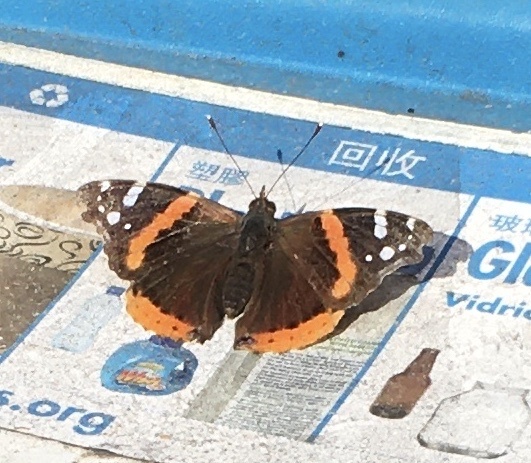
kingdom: Animalia
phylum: Arthropoda
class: Insecta
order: Lepidoptera
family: Nymphalidae
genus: Vanessa
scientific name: Vanessa atalanta
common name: Red admiral
